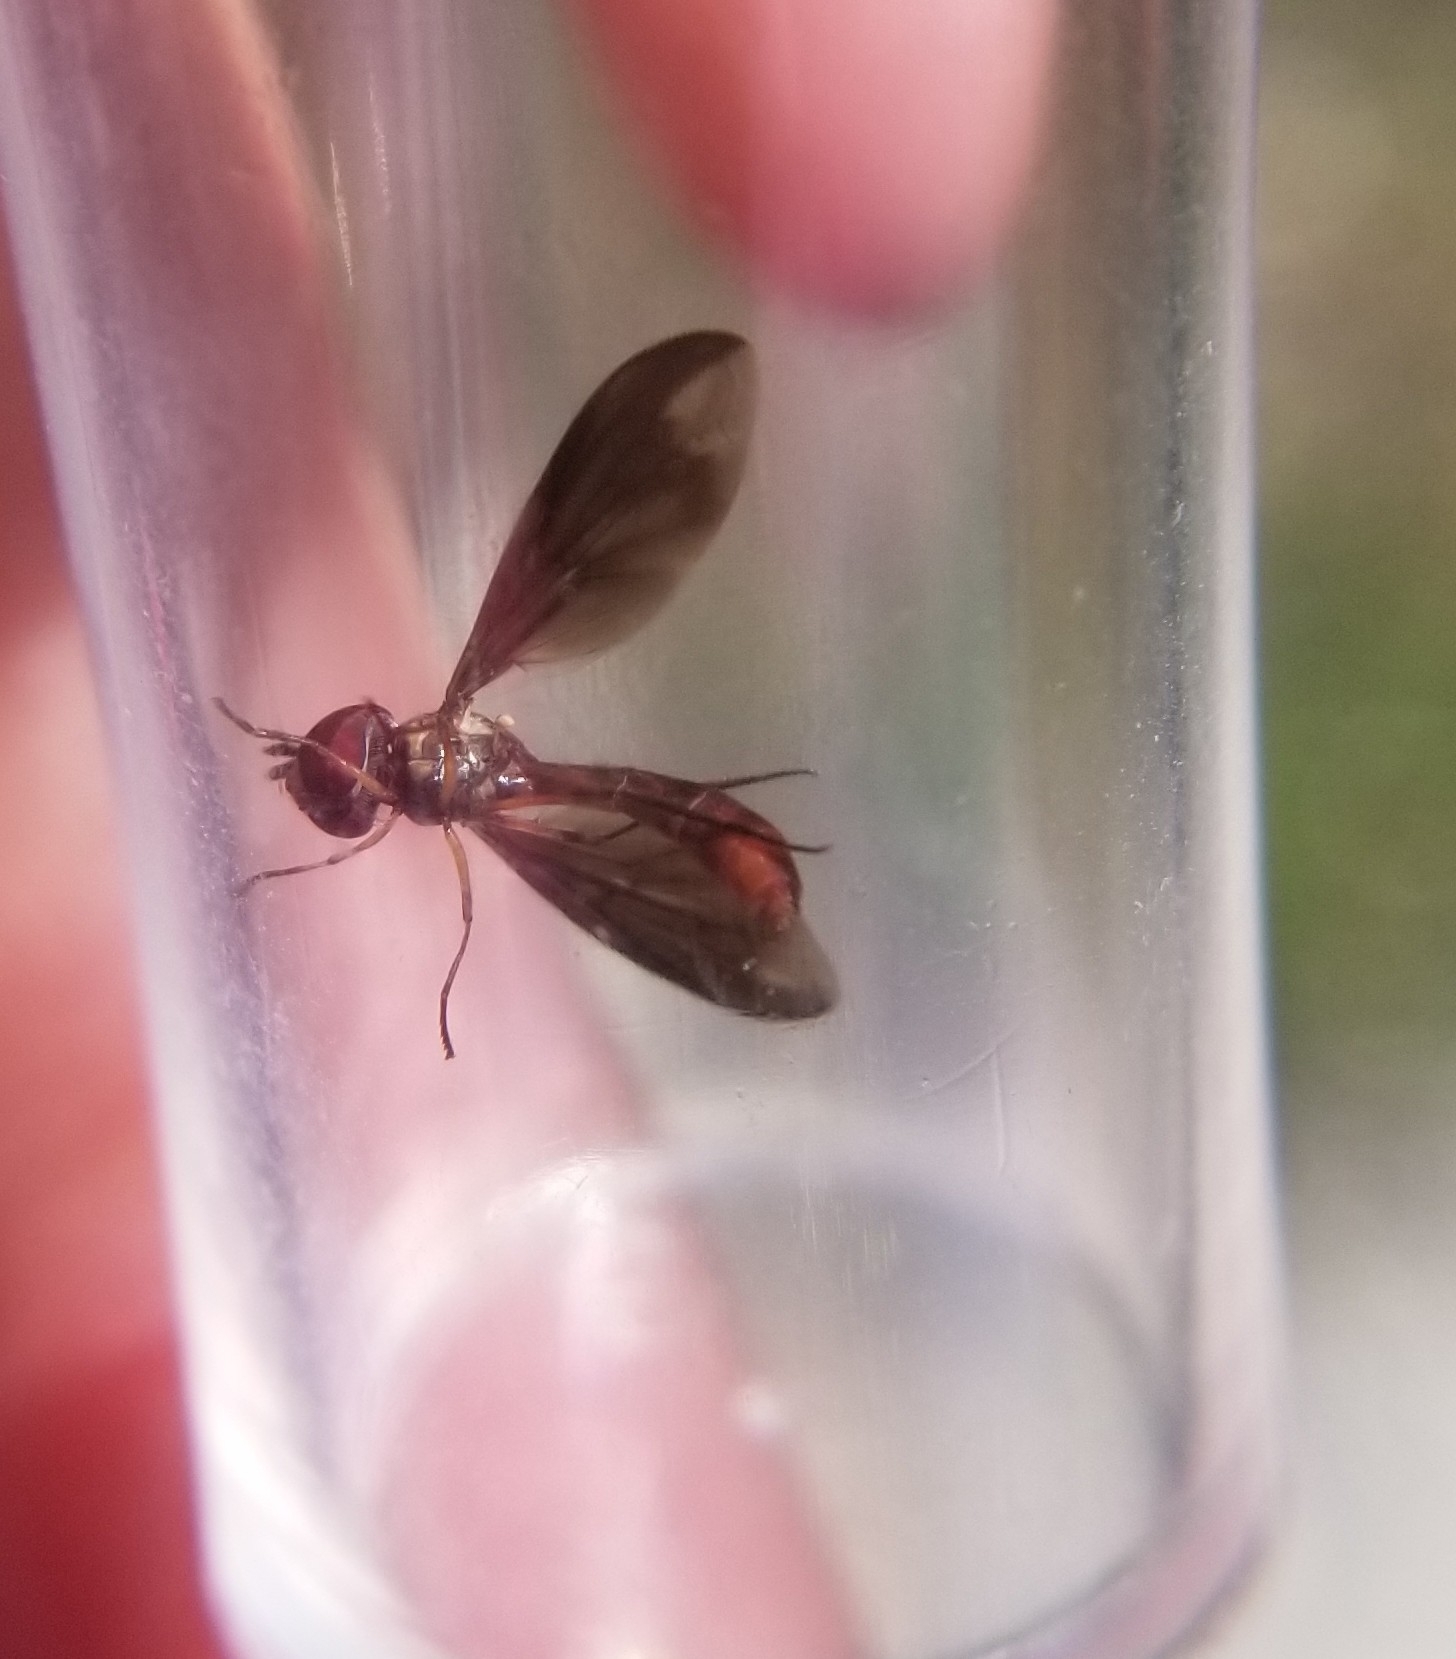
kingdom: Animalia
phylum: Arthropoda
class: Insecta
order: Diptera
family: Syrphidae
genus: Ocyptamus
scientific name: Ocyptamus fuscipennis
